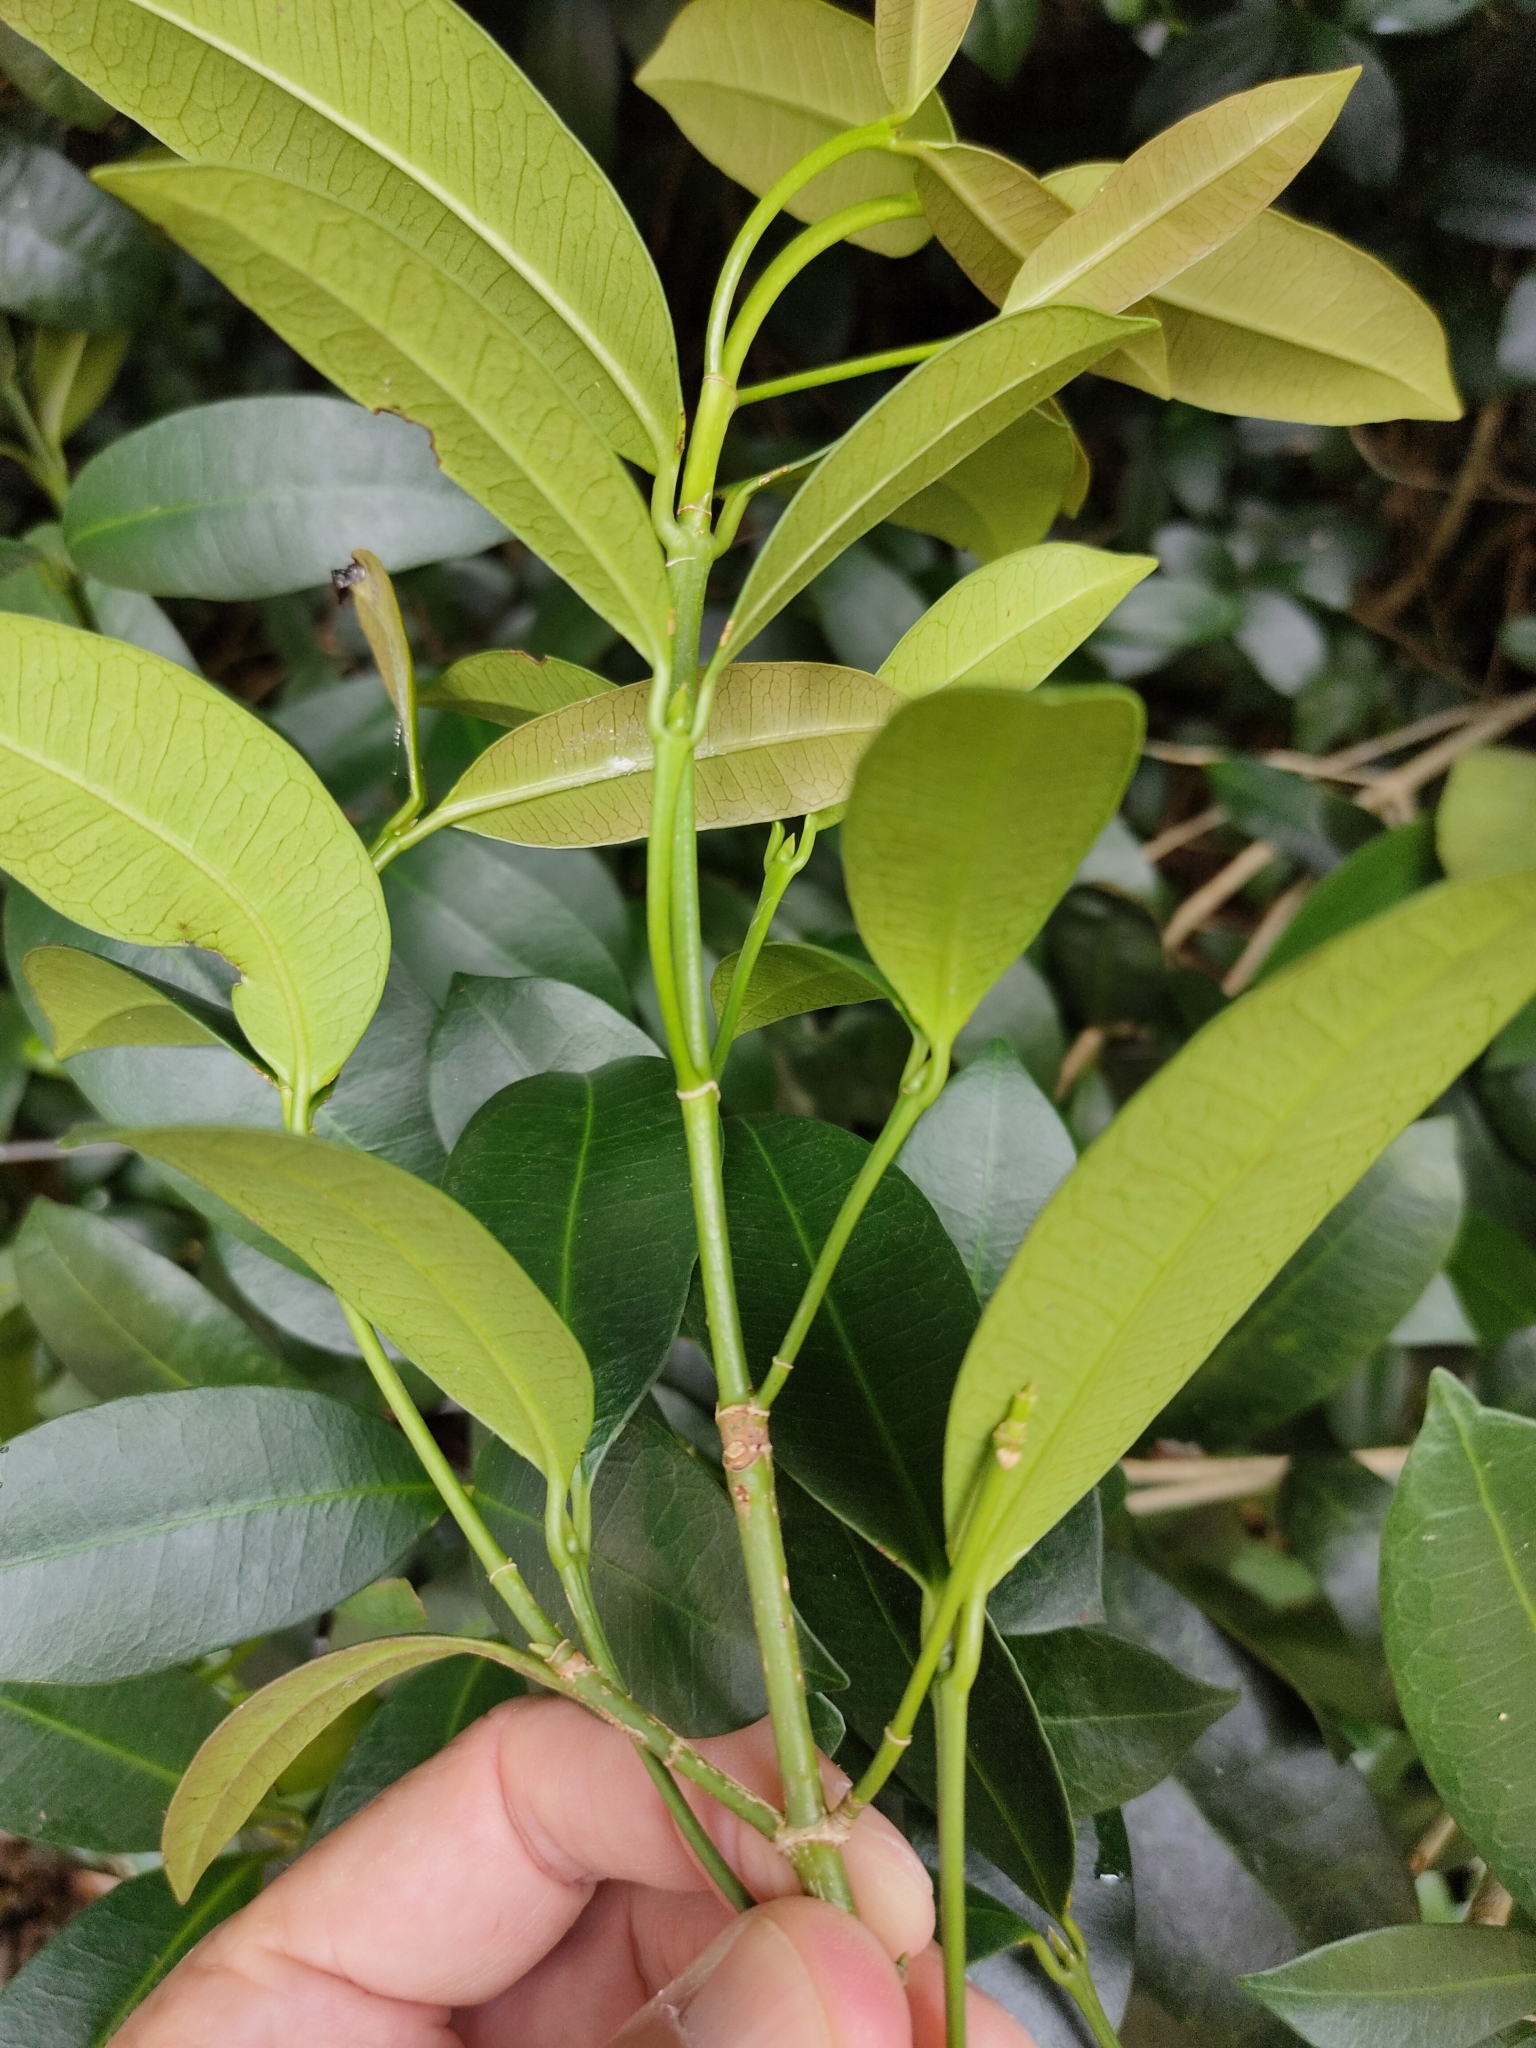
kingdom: Plantae
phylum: Tracheophyta
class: Magnoliopsida
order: Malpighiales
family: Euphorbiaceae
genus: Baloghia
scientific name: Baloghia inophylla
